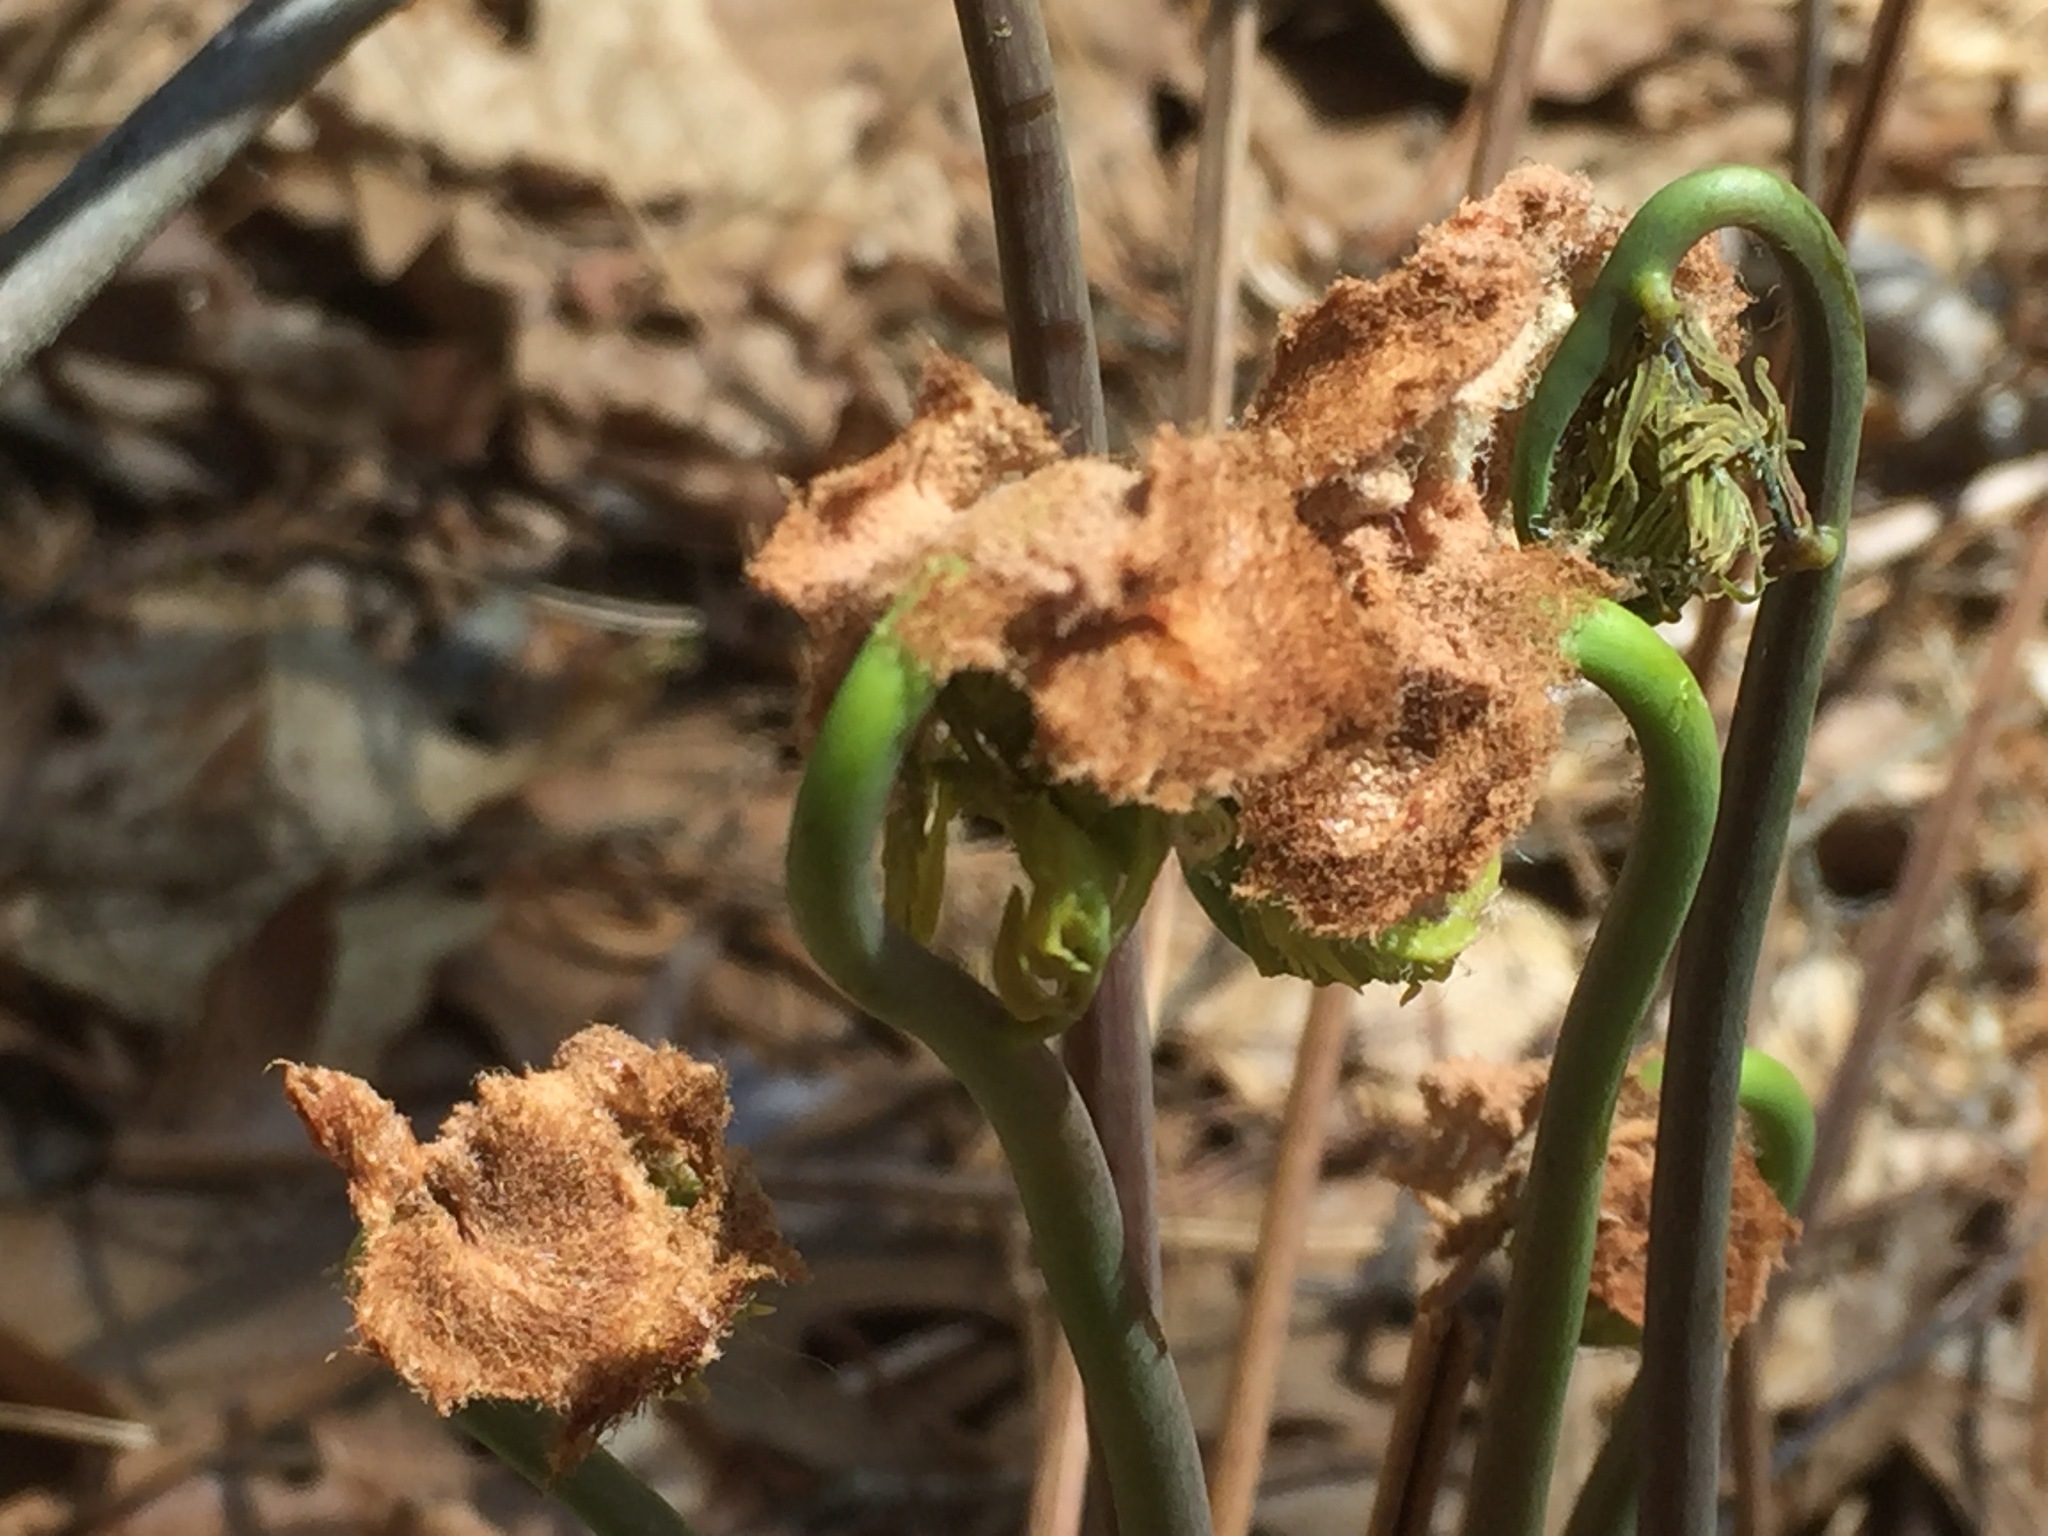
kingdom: Plantae
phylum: Tracheophyta
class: Polypodiopsida
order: Polypodiales
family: Dennstaedtiaceae
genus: Pteridium
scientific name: Pteridium aquilinum
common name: Bracken
